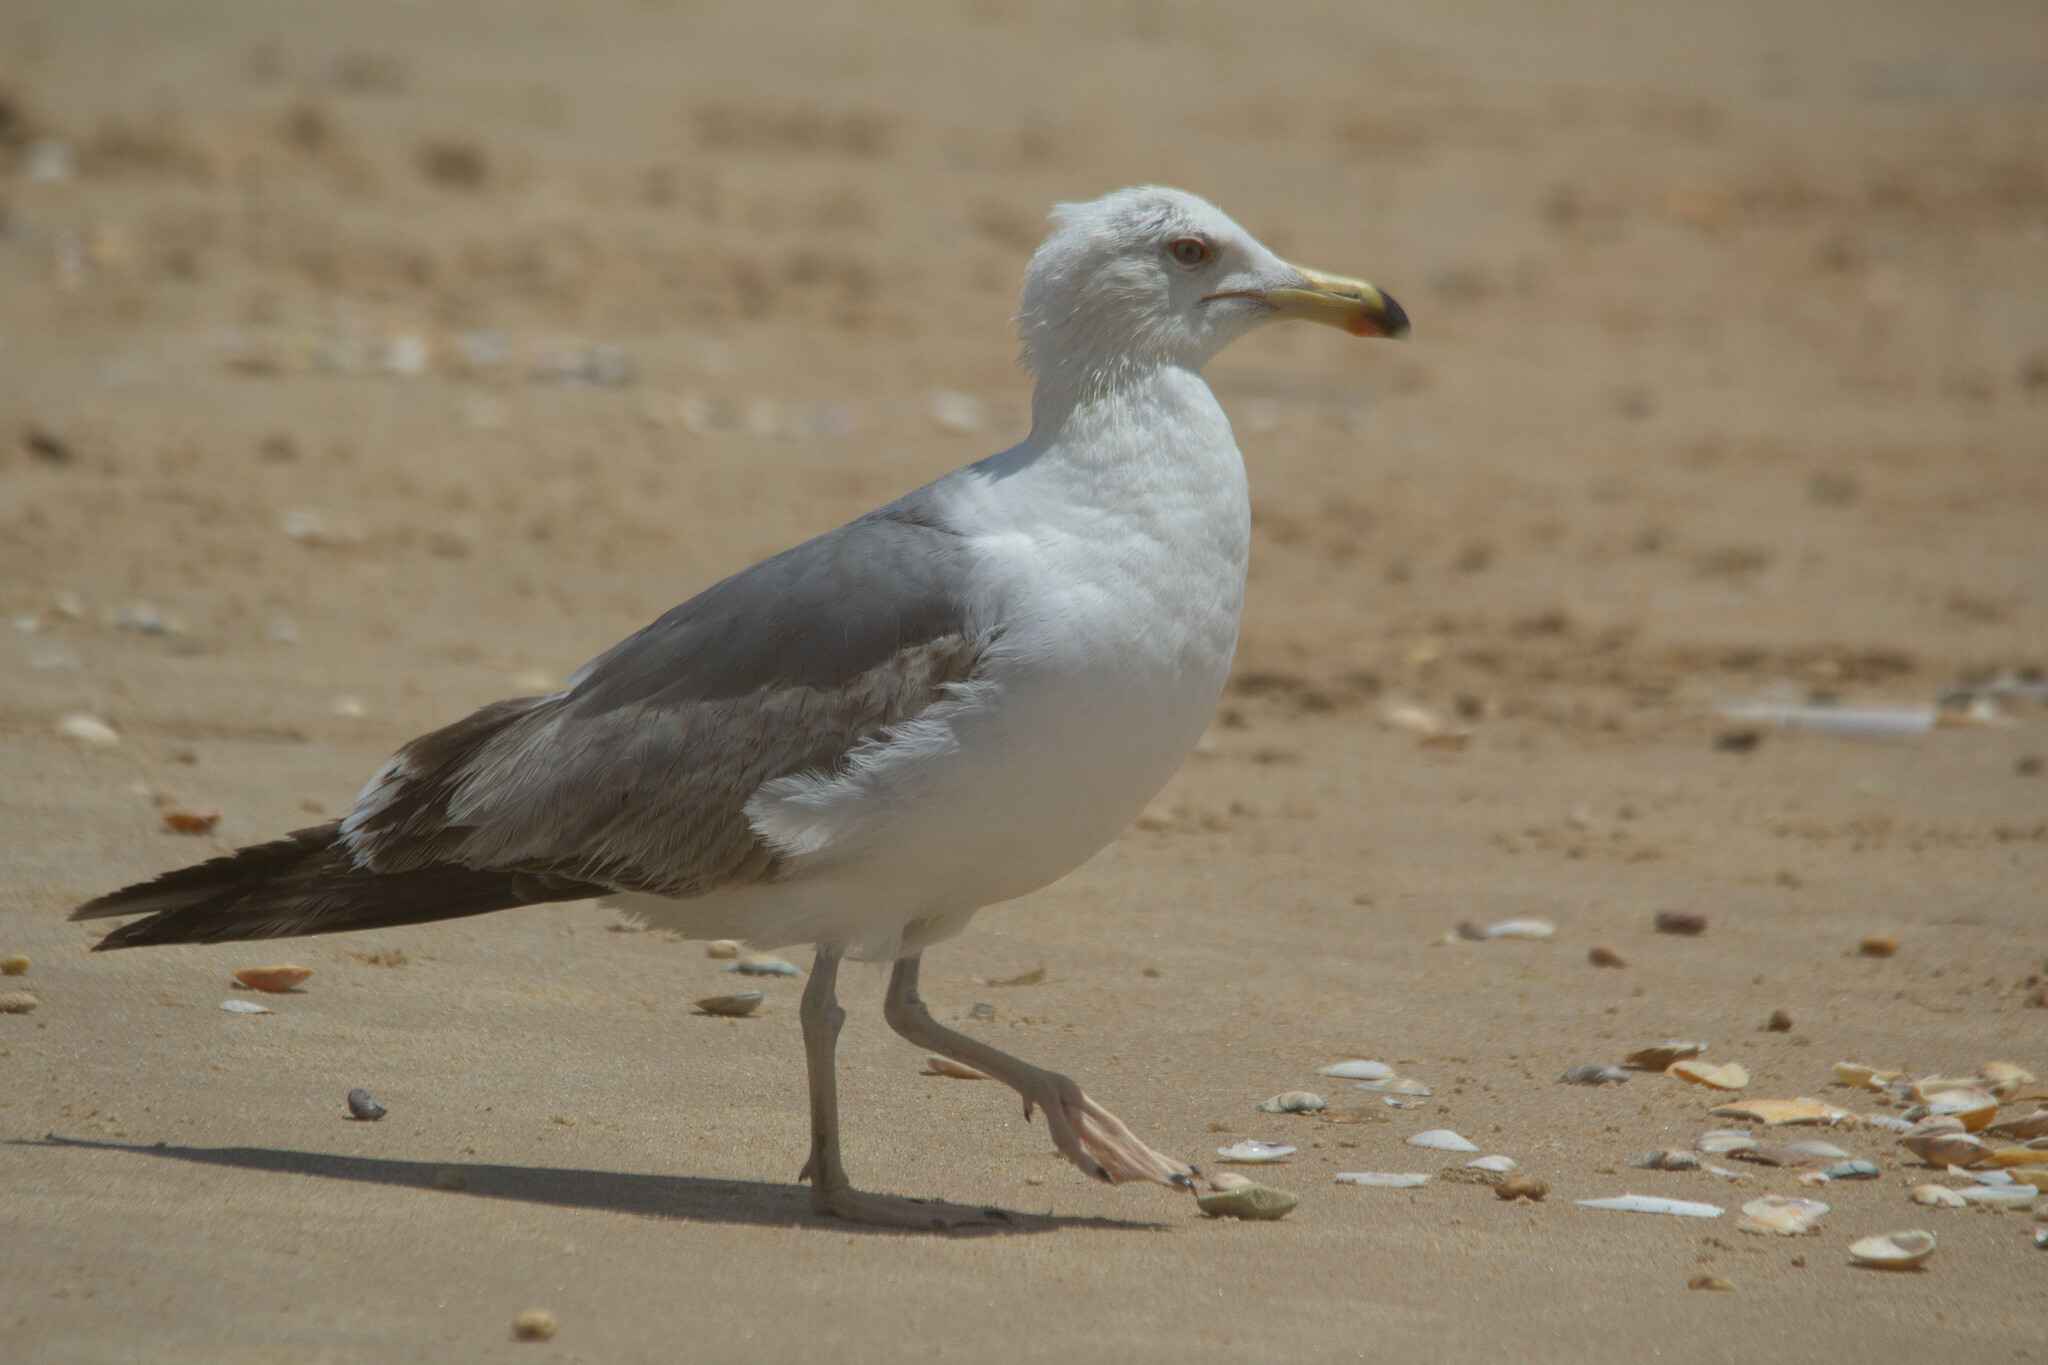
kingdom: Animalia
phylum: Chordata
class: Aves
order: Charadriiformes
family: Laridae
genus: Larus
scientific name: Larus michahellis
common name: Yellow-legged gull
